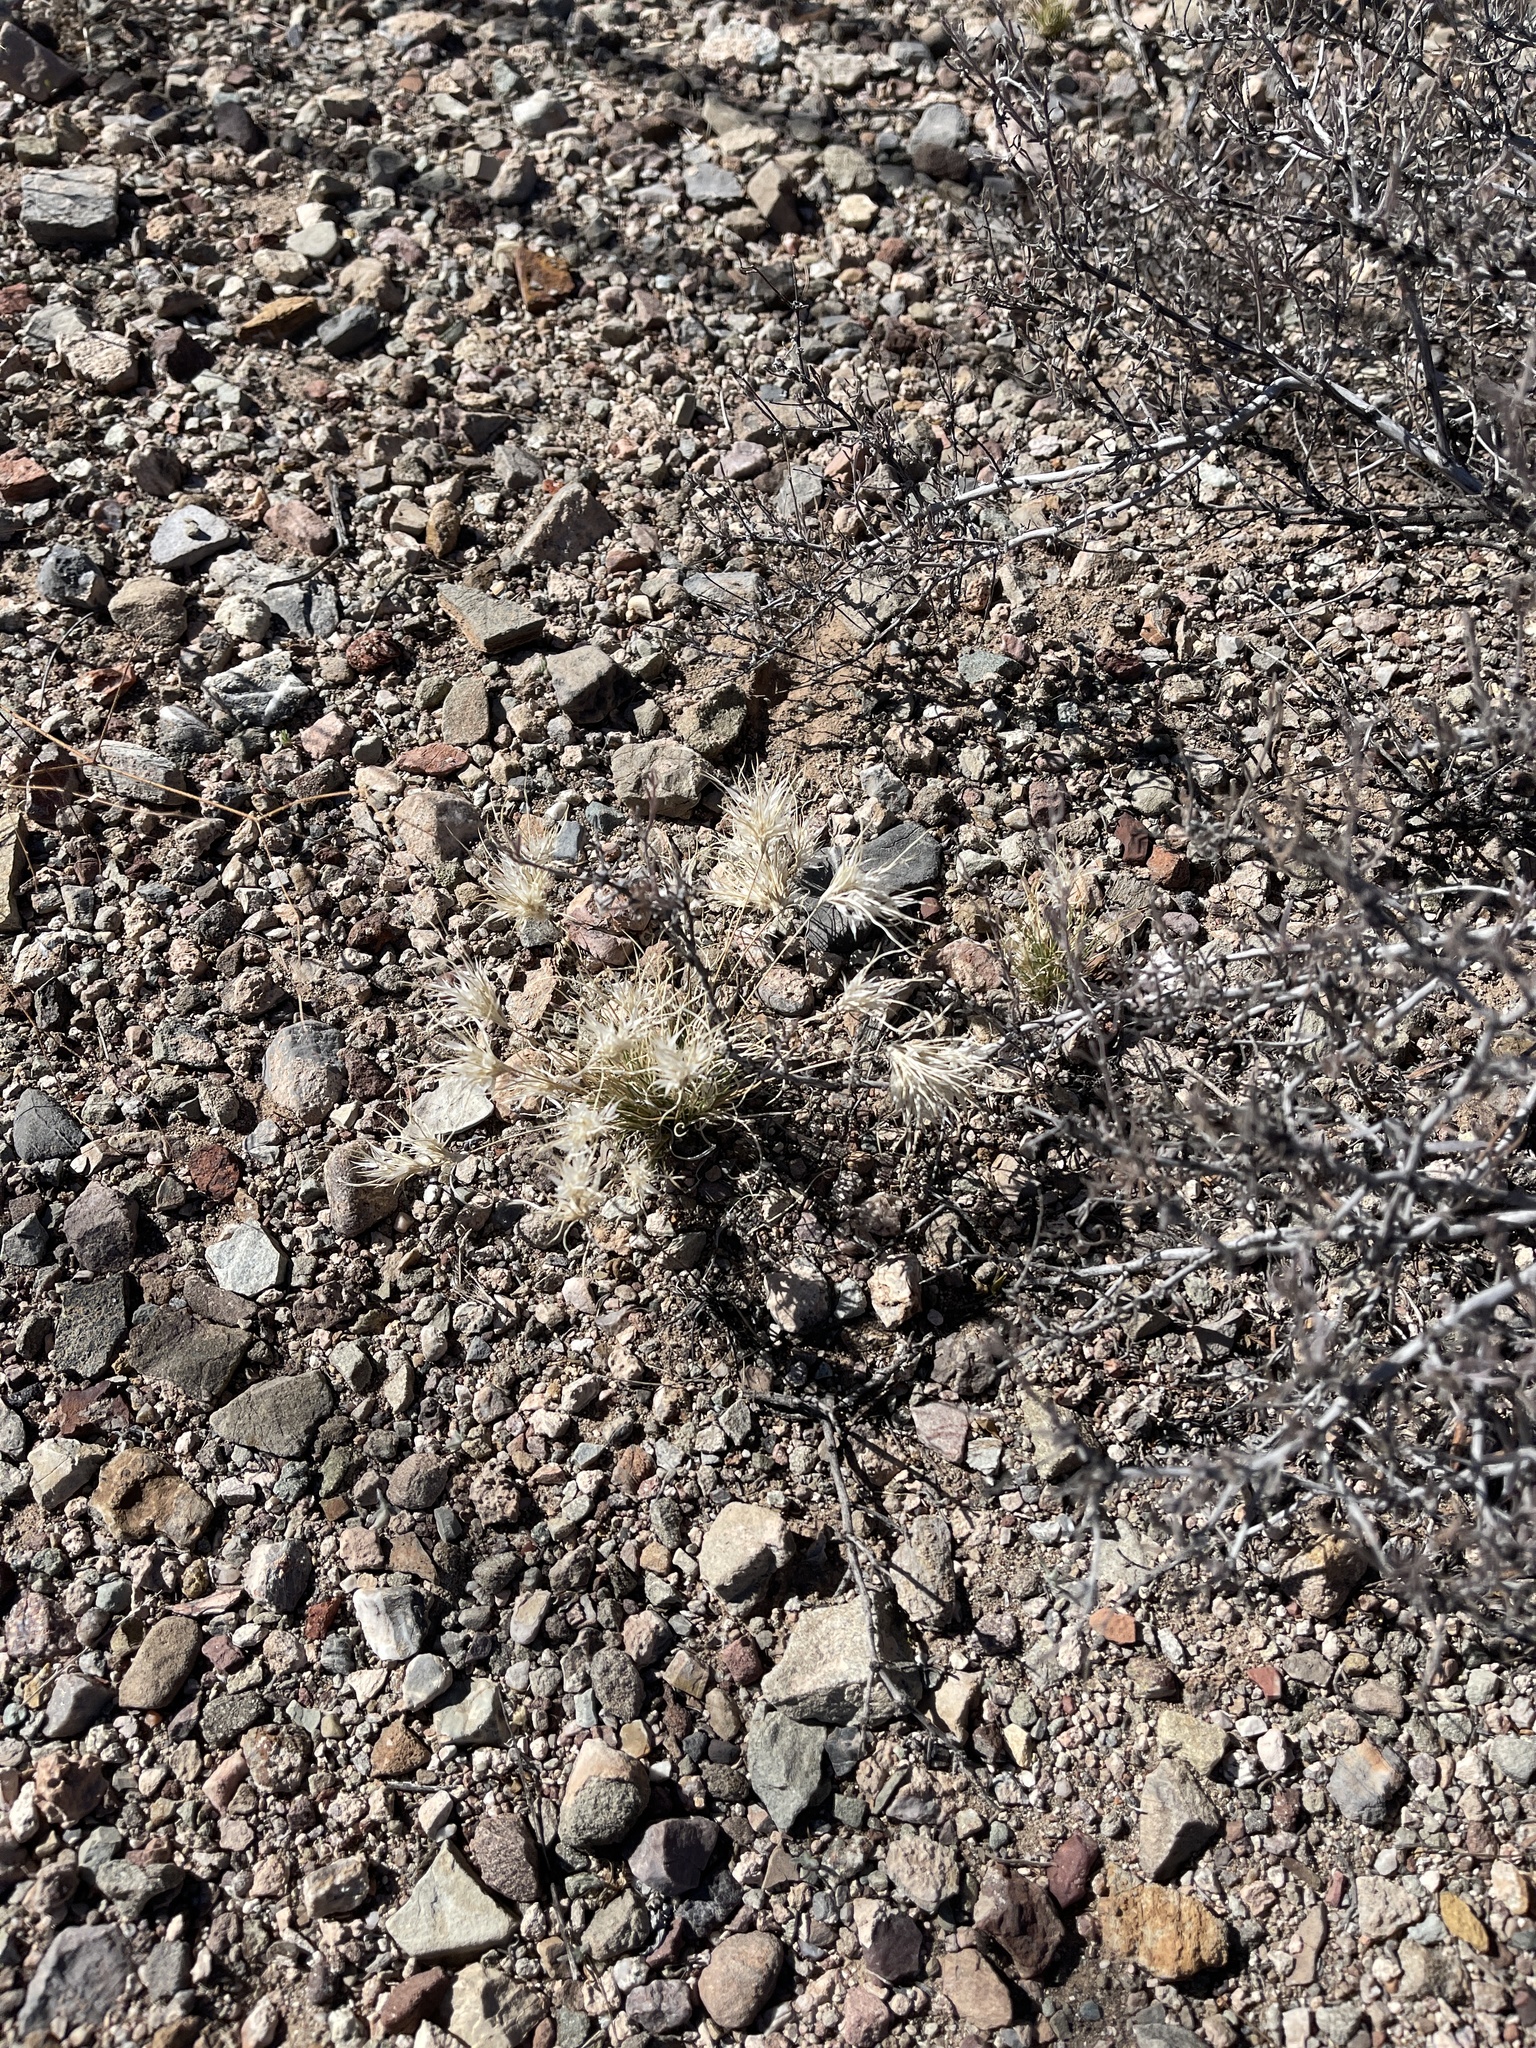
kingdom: Plantae
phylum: Tracheophyta
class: Liliopsida
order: Poales
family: Poaceae
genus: Dasyochloa
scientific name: Dasyochloa pulchella
